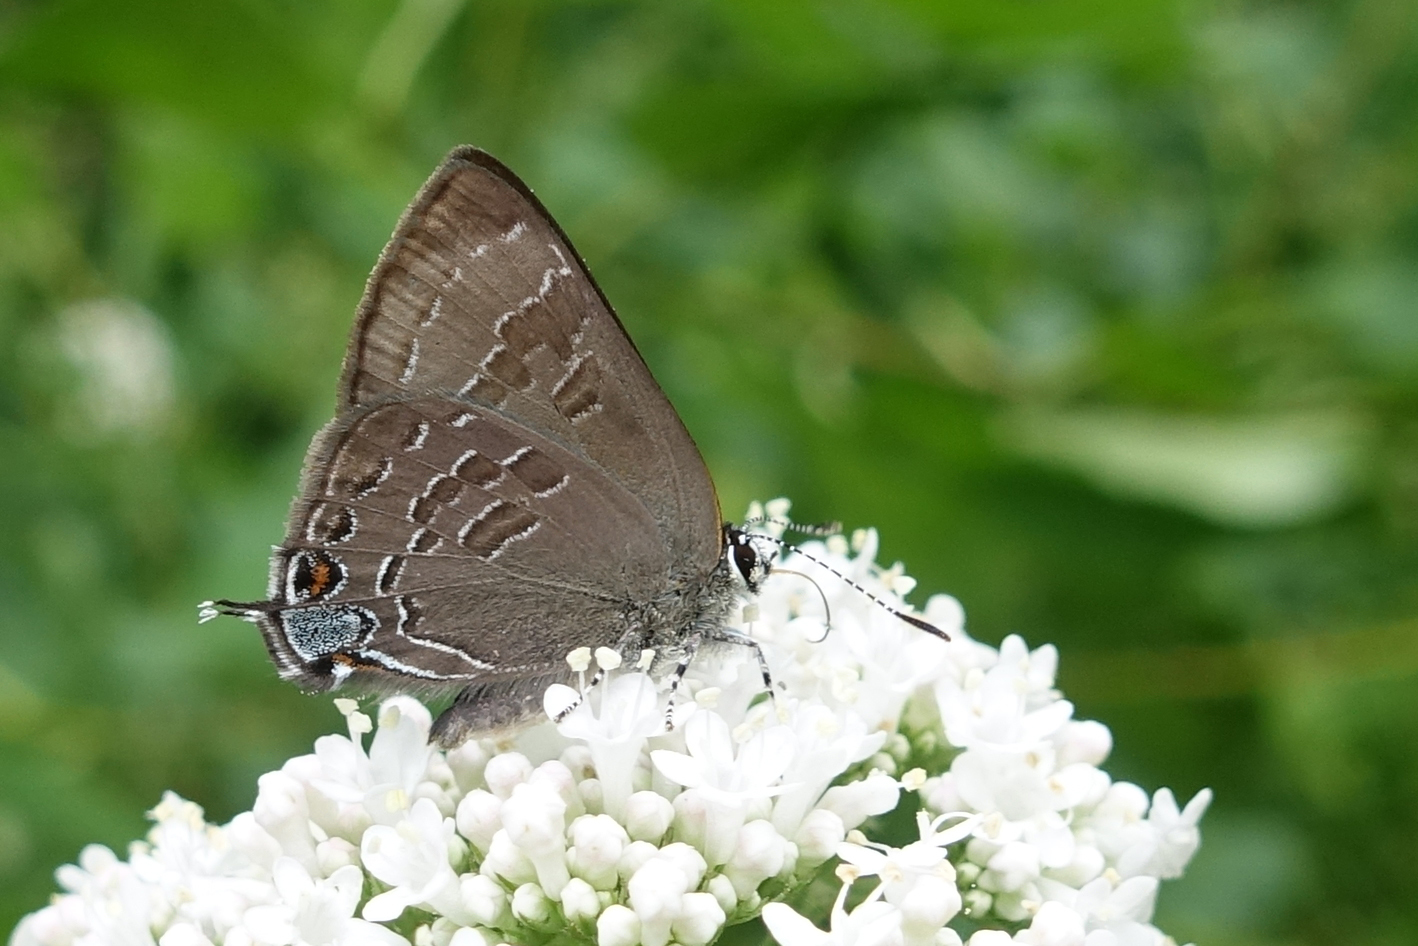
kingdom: Animalia
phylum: Arthropoda
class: Insecta
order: Lepidoptera
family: Lycaenidae
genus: Strymon
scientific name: Strymon caryaevorus
